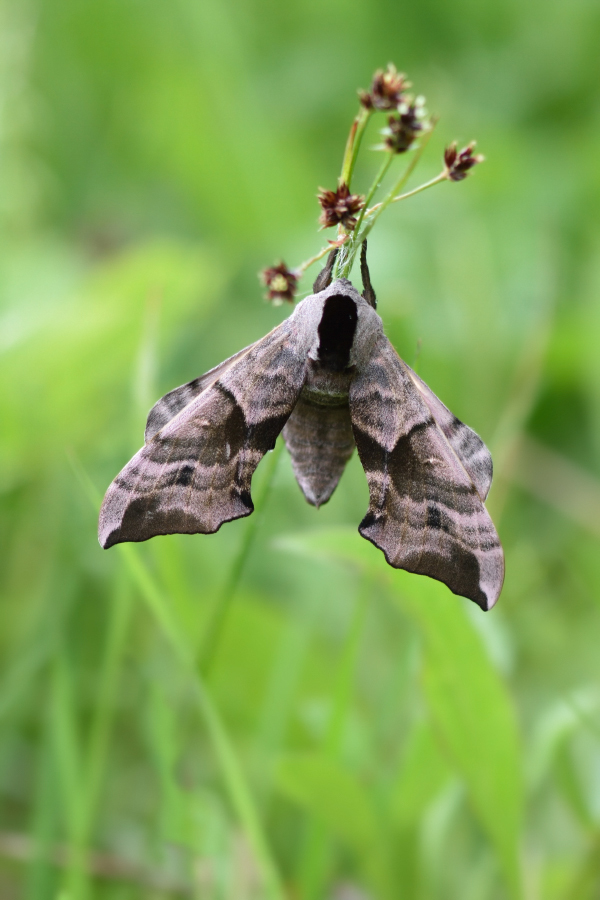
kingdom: Animalia
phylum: Arthropoda
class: Insecta
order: Lepidoptera
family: Sphingidae
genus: Smerinthus
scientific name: Smerinthus ocellata
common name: Eyed hawk-moth
